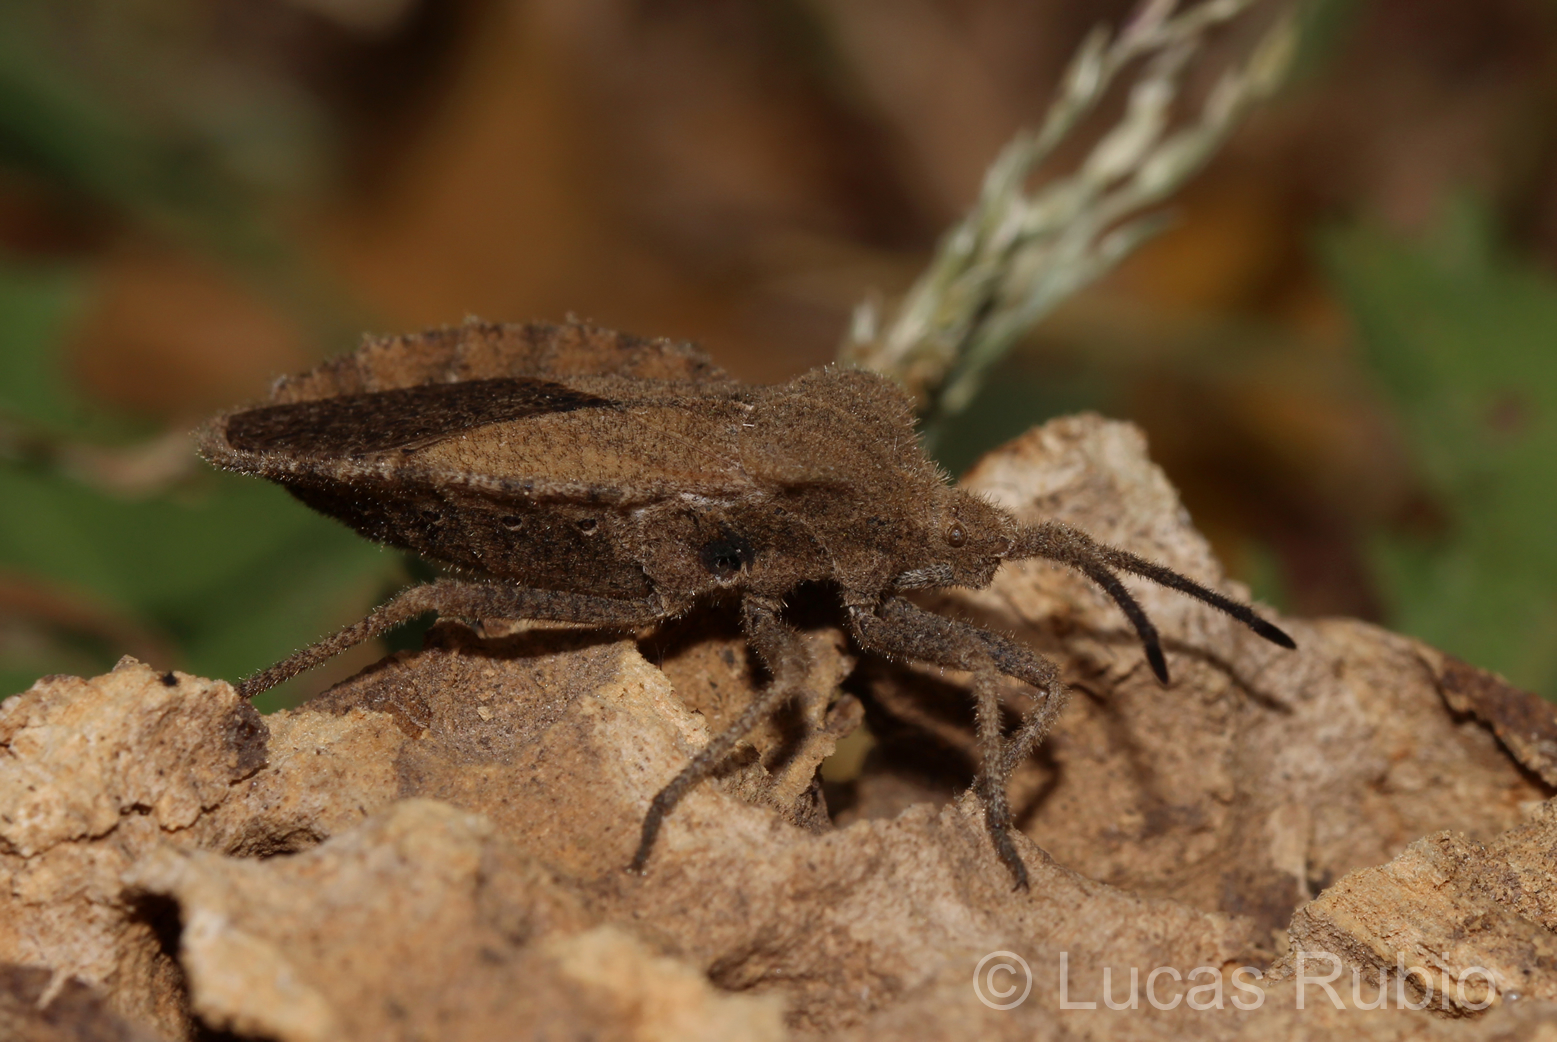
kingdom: Animalia
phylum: Arthropoda
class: Insecta
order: Hemiptera
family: Coreidae
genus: Spartocera
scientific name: Spartocera dentiventris
